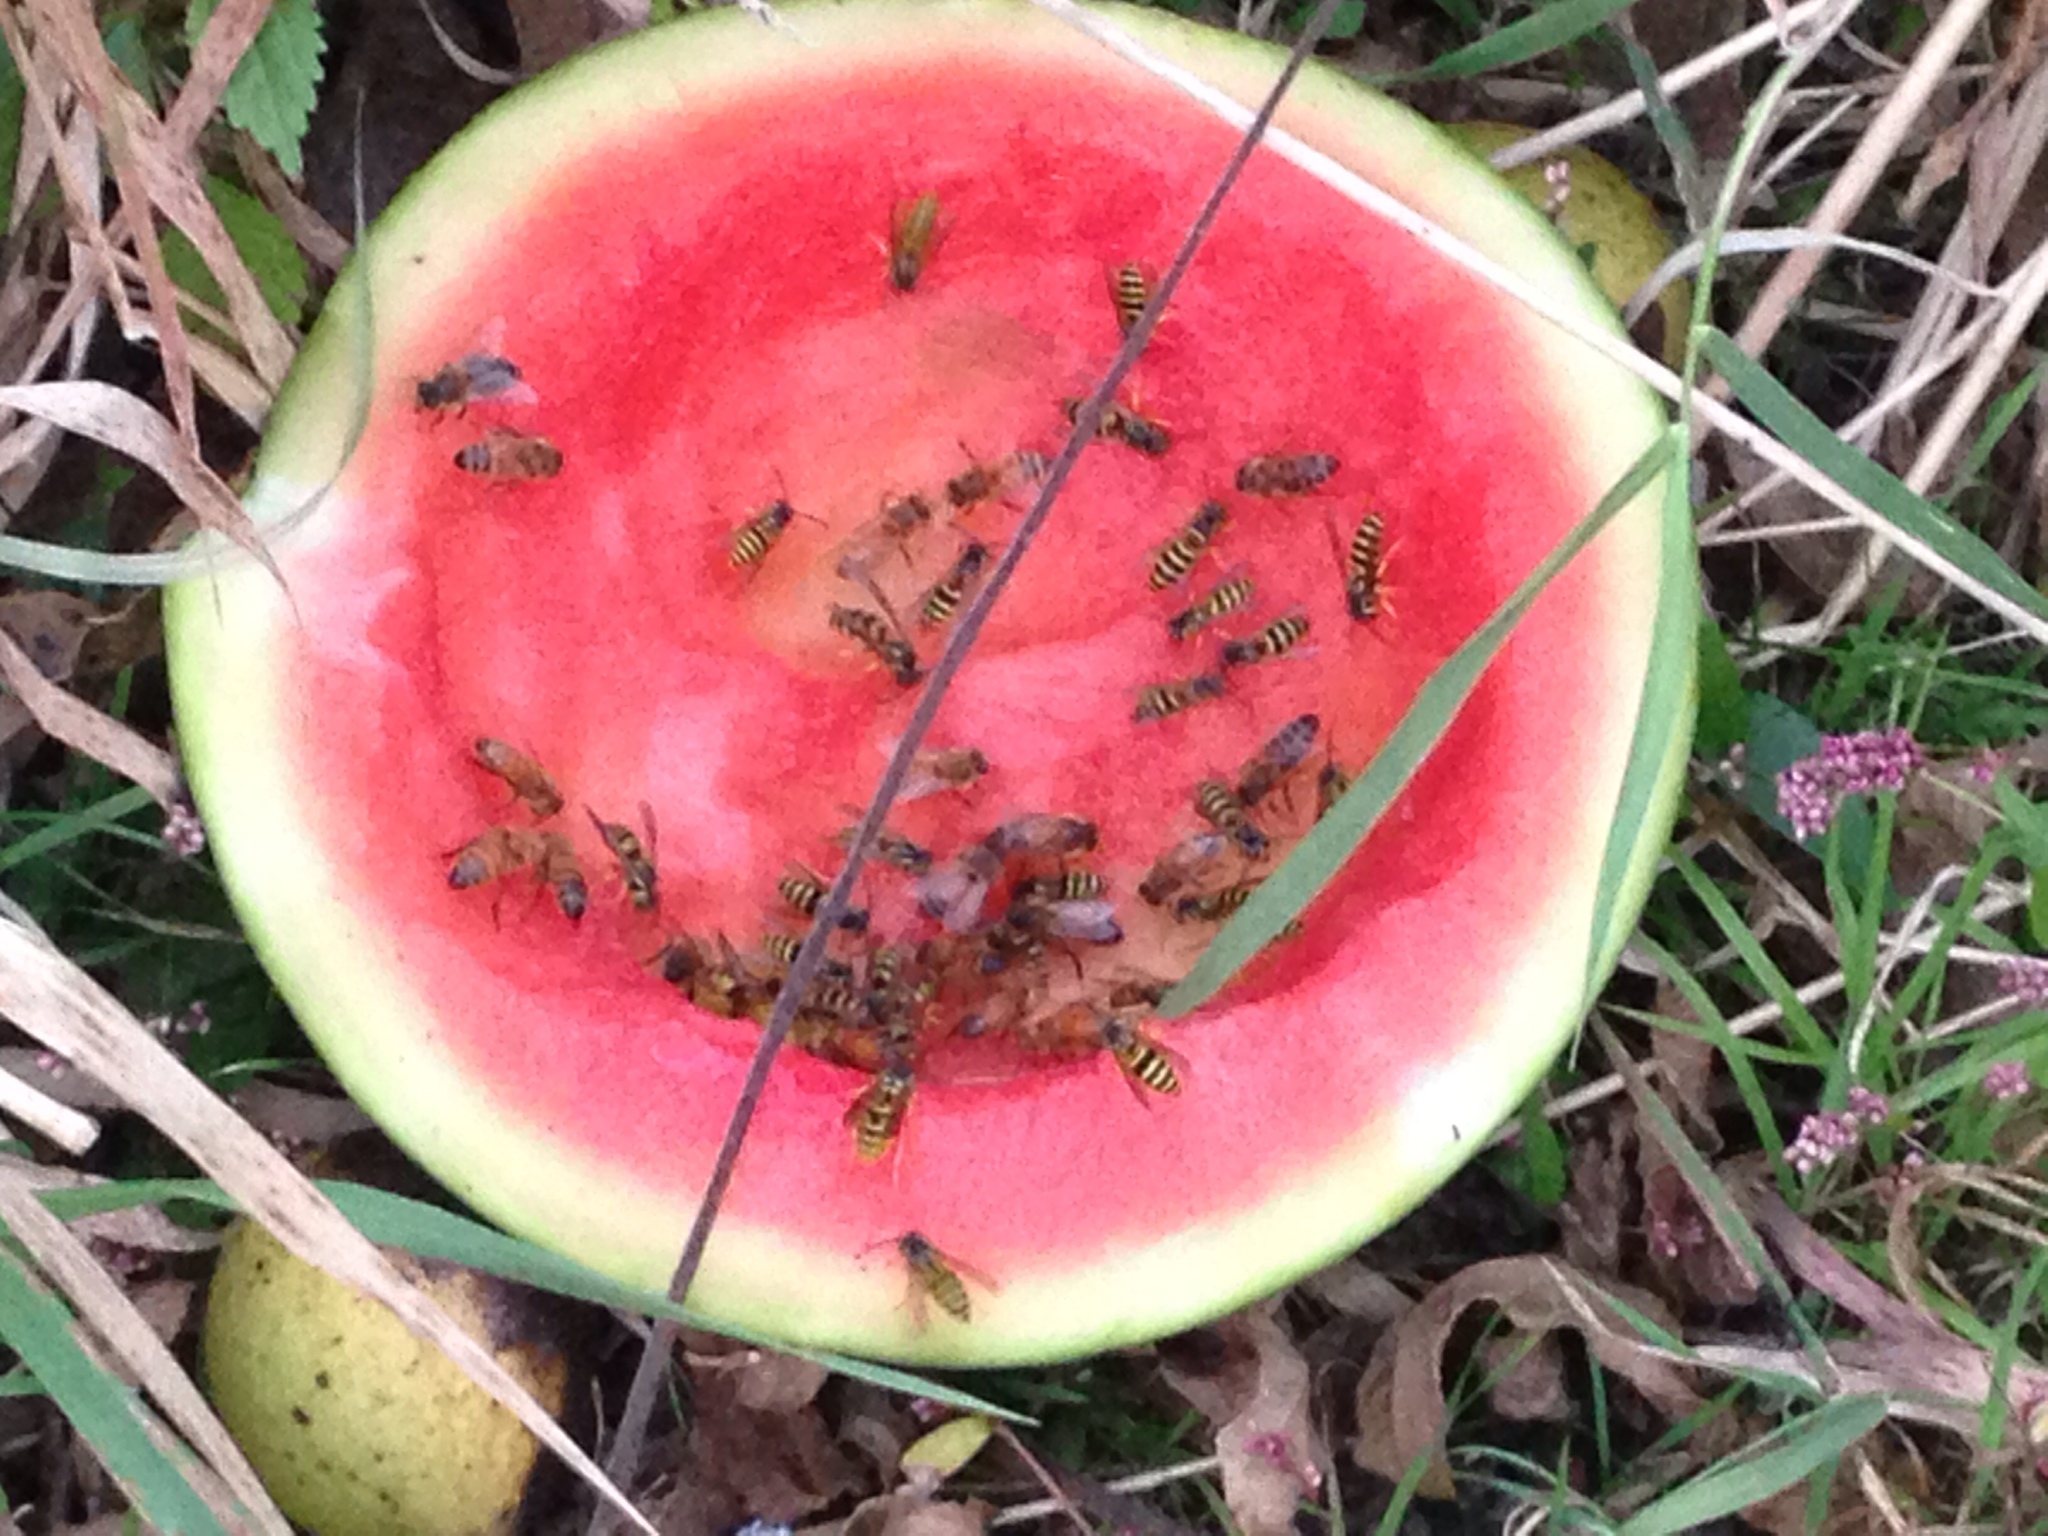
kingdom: Animalia
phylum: Arthropoda
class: Insecta
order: Hymenoptera
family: Apidae
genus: Apis
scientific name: Apis mellifera
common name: Honey bee
